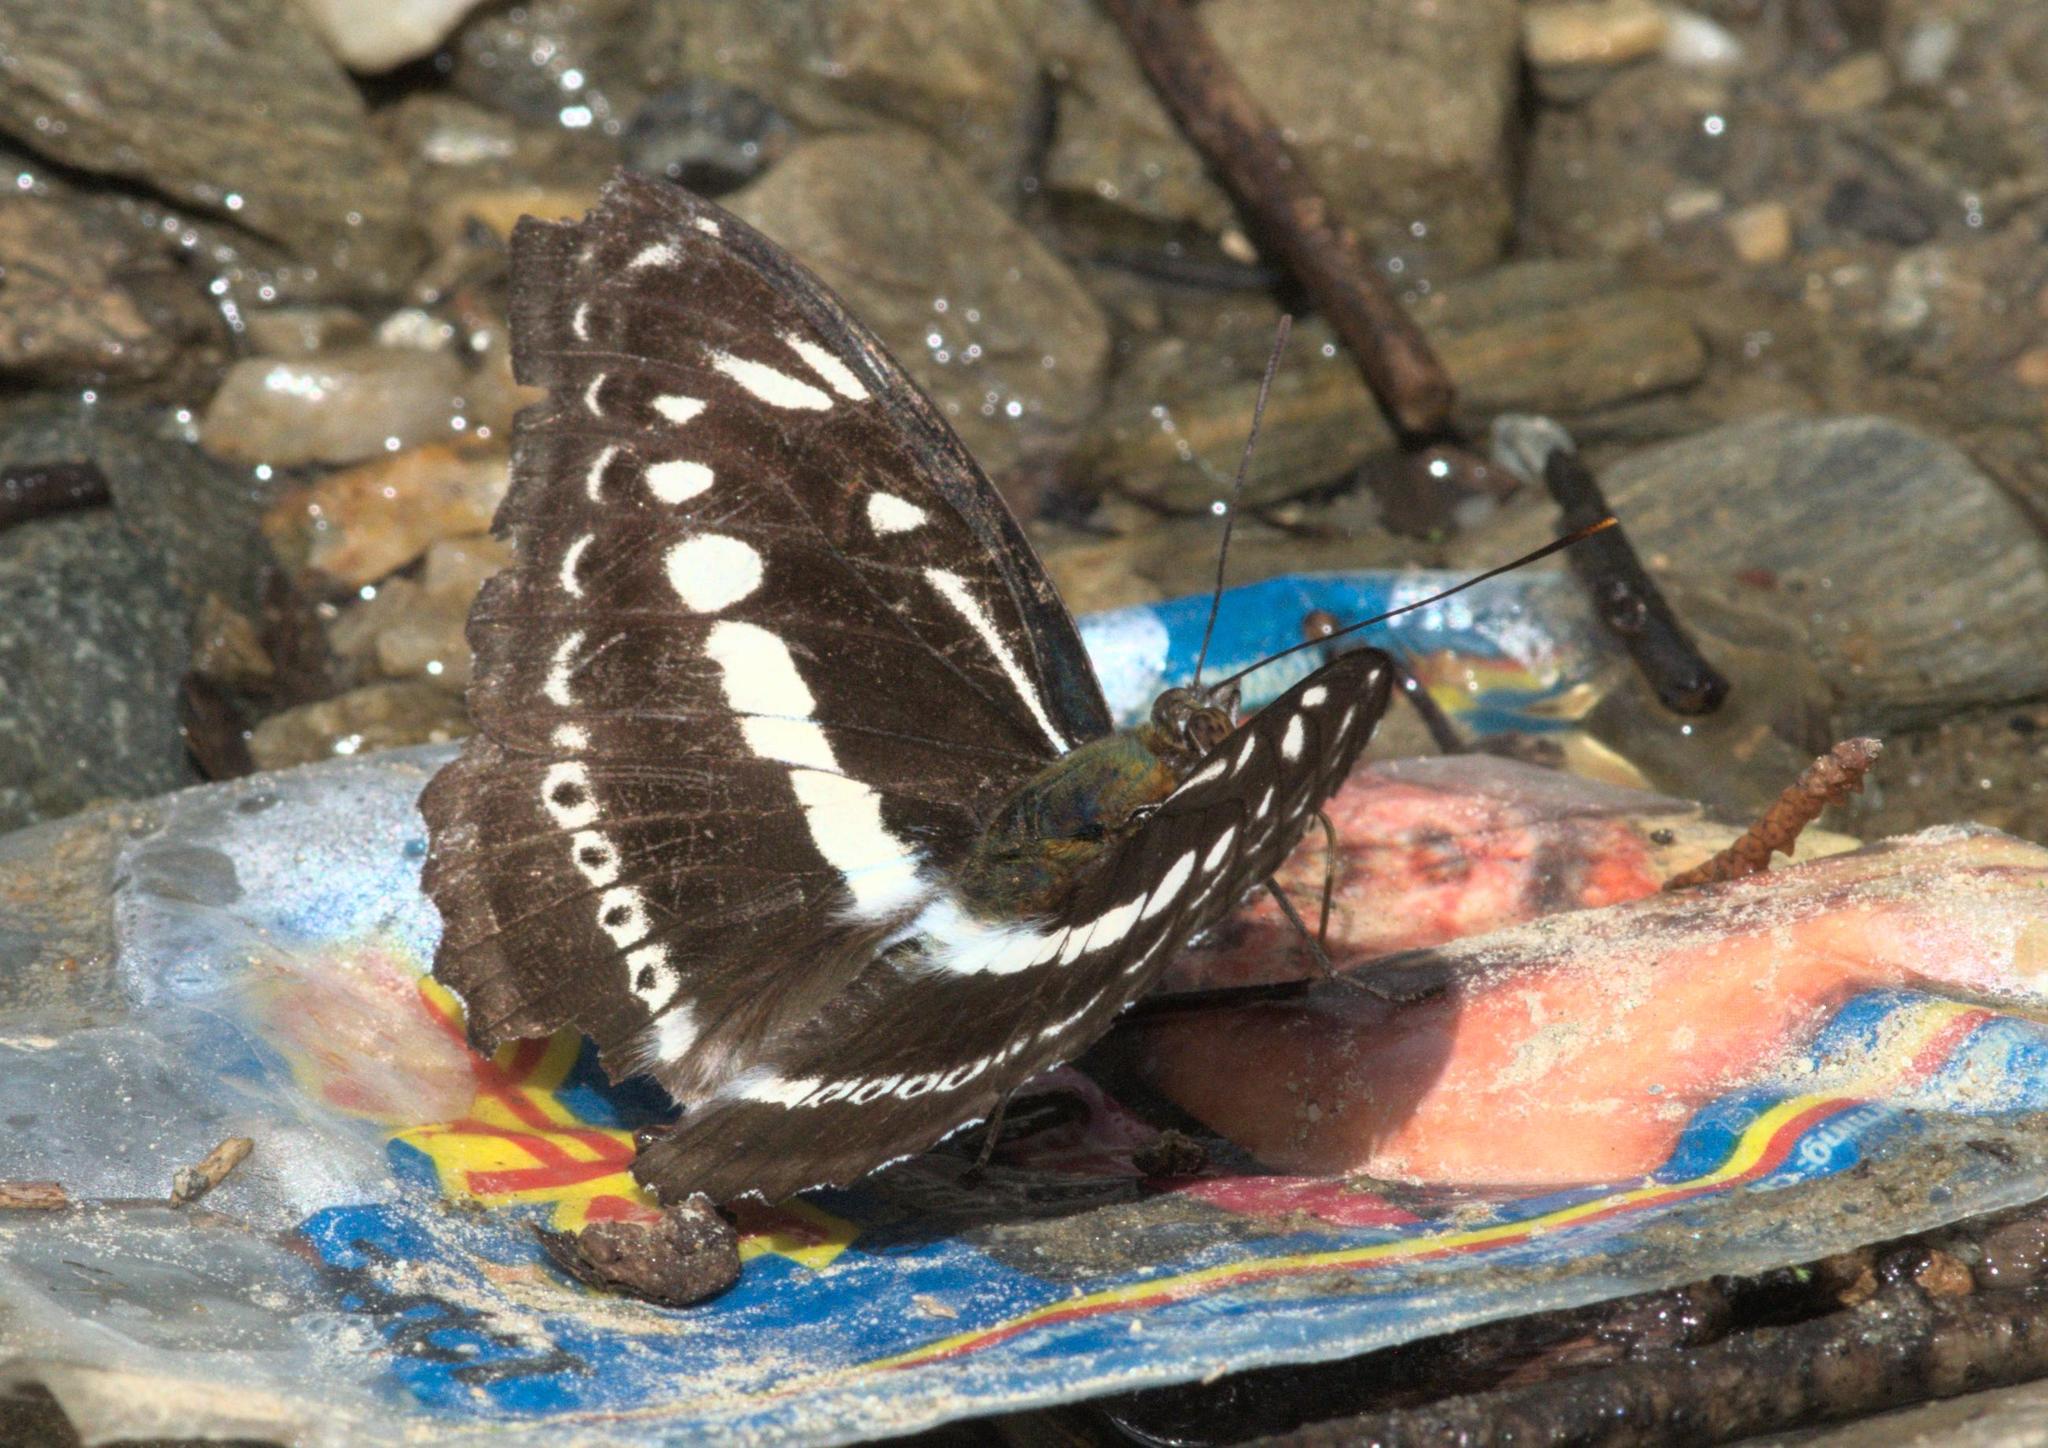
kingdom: Animalia
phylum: Arthropoda
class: Insecta
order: Lepidoptera
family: Nymphalidae
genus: Parathyma
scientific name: Parathyma asura
